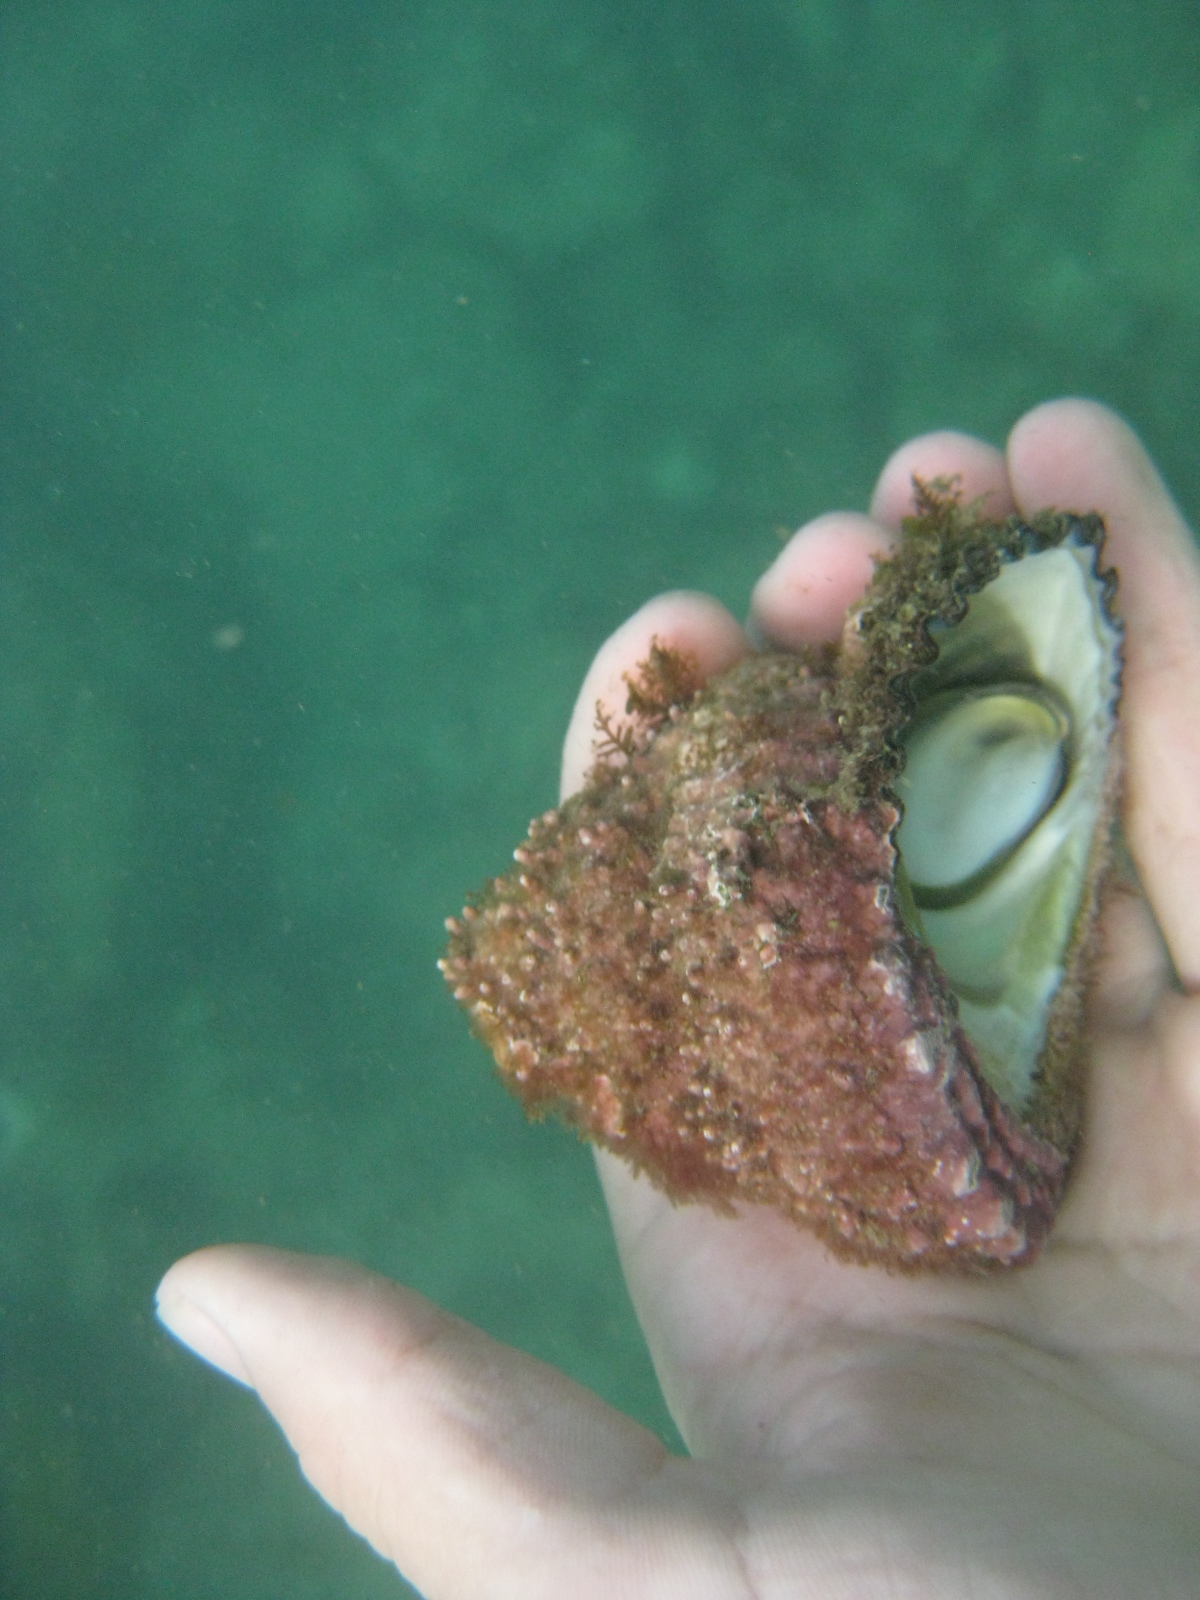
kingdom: Animalia
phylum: Mollusca
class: Gastropoda
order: Trochida
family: Turbinidae
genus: Cookia
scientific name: Cookia sulcata
